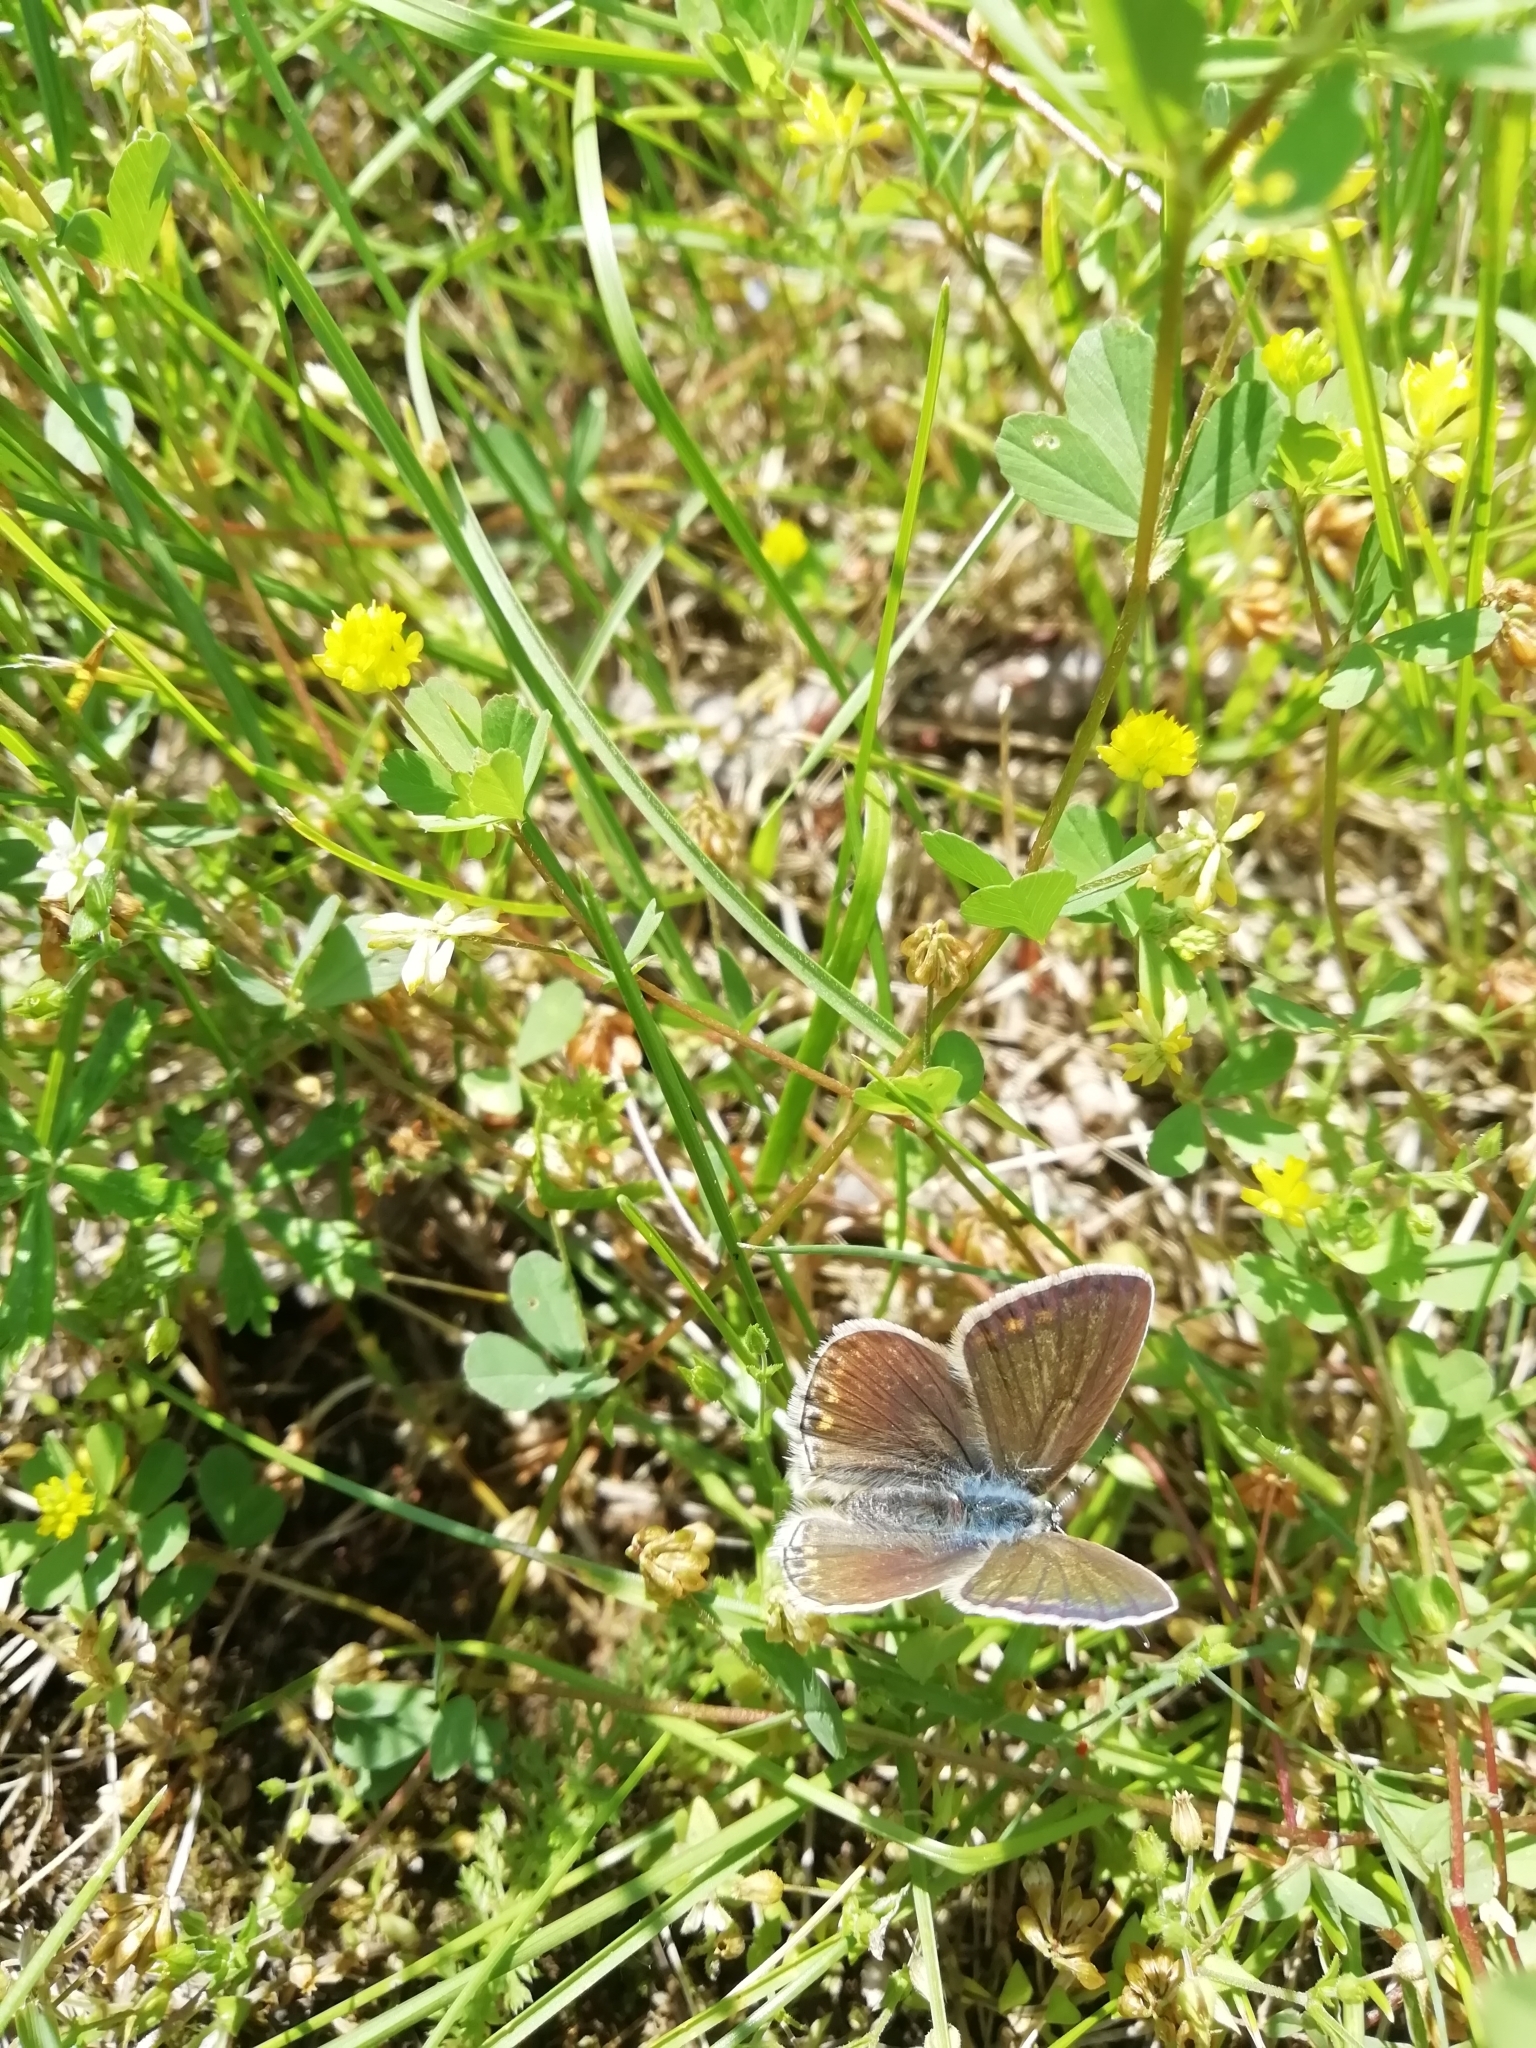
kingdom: Animalia
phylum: Arthropoda
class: Insecta
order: Lepidoptera
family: Lycaenidae
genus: Polyommatus
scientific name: Polyommatus icarus
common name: Common blue
